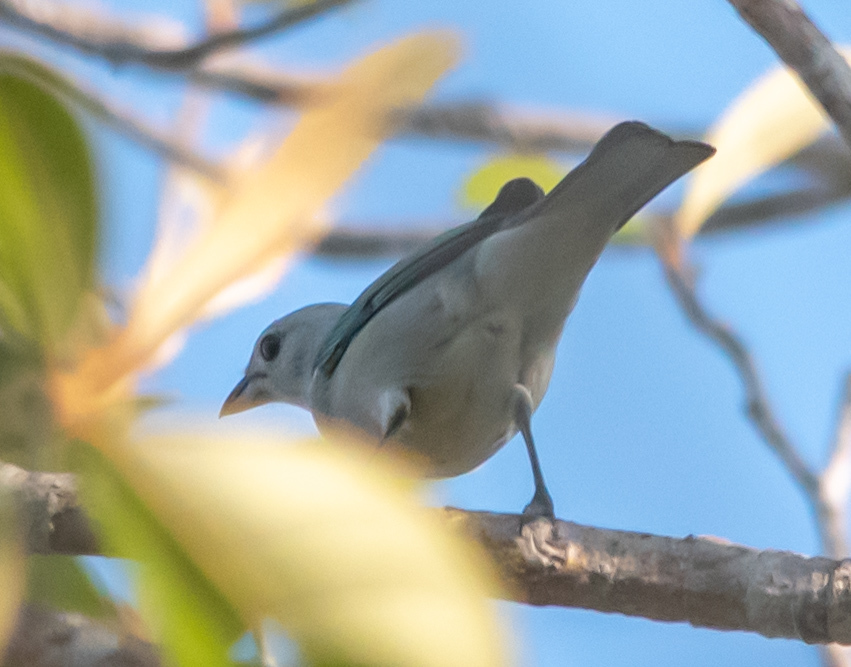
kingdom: Animalia
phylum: Chordata
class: Aves
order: Passeriformes
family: Thraupidae
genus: Thraupis
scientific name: Thraupis episcopus
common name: Blue-grey tanager
